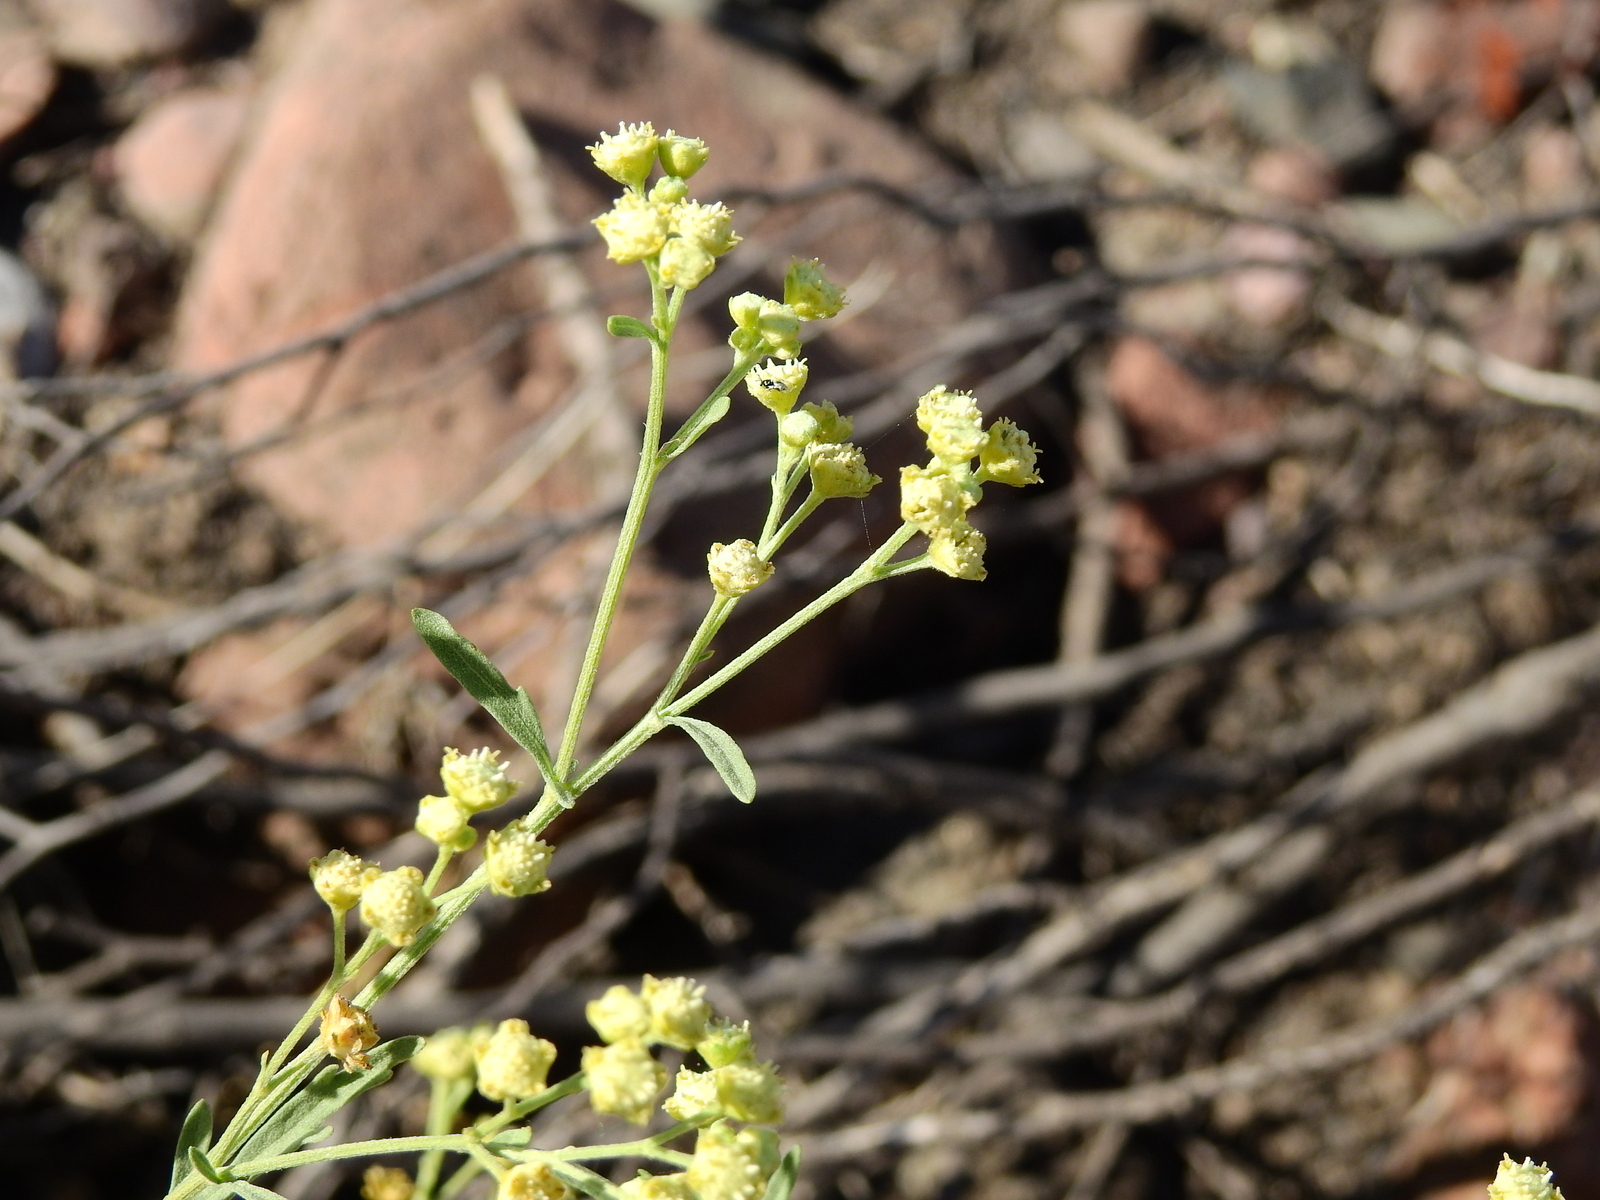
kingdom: Plantae
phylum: Tracheophyta
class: Magnoliopsida
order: Asterales
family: Asteraceae
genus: Parthenium
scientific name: Parthenium hysterophorus
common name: Santa maria feverfew
